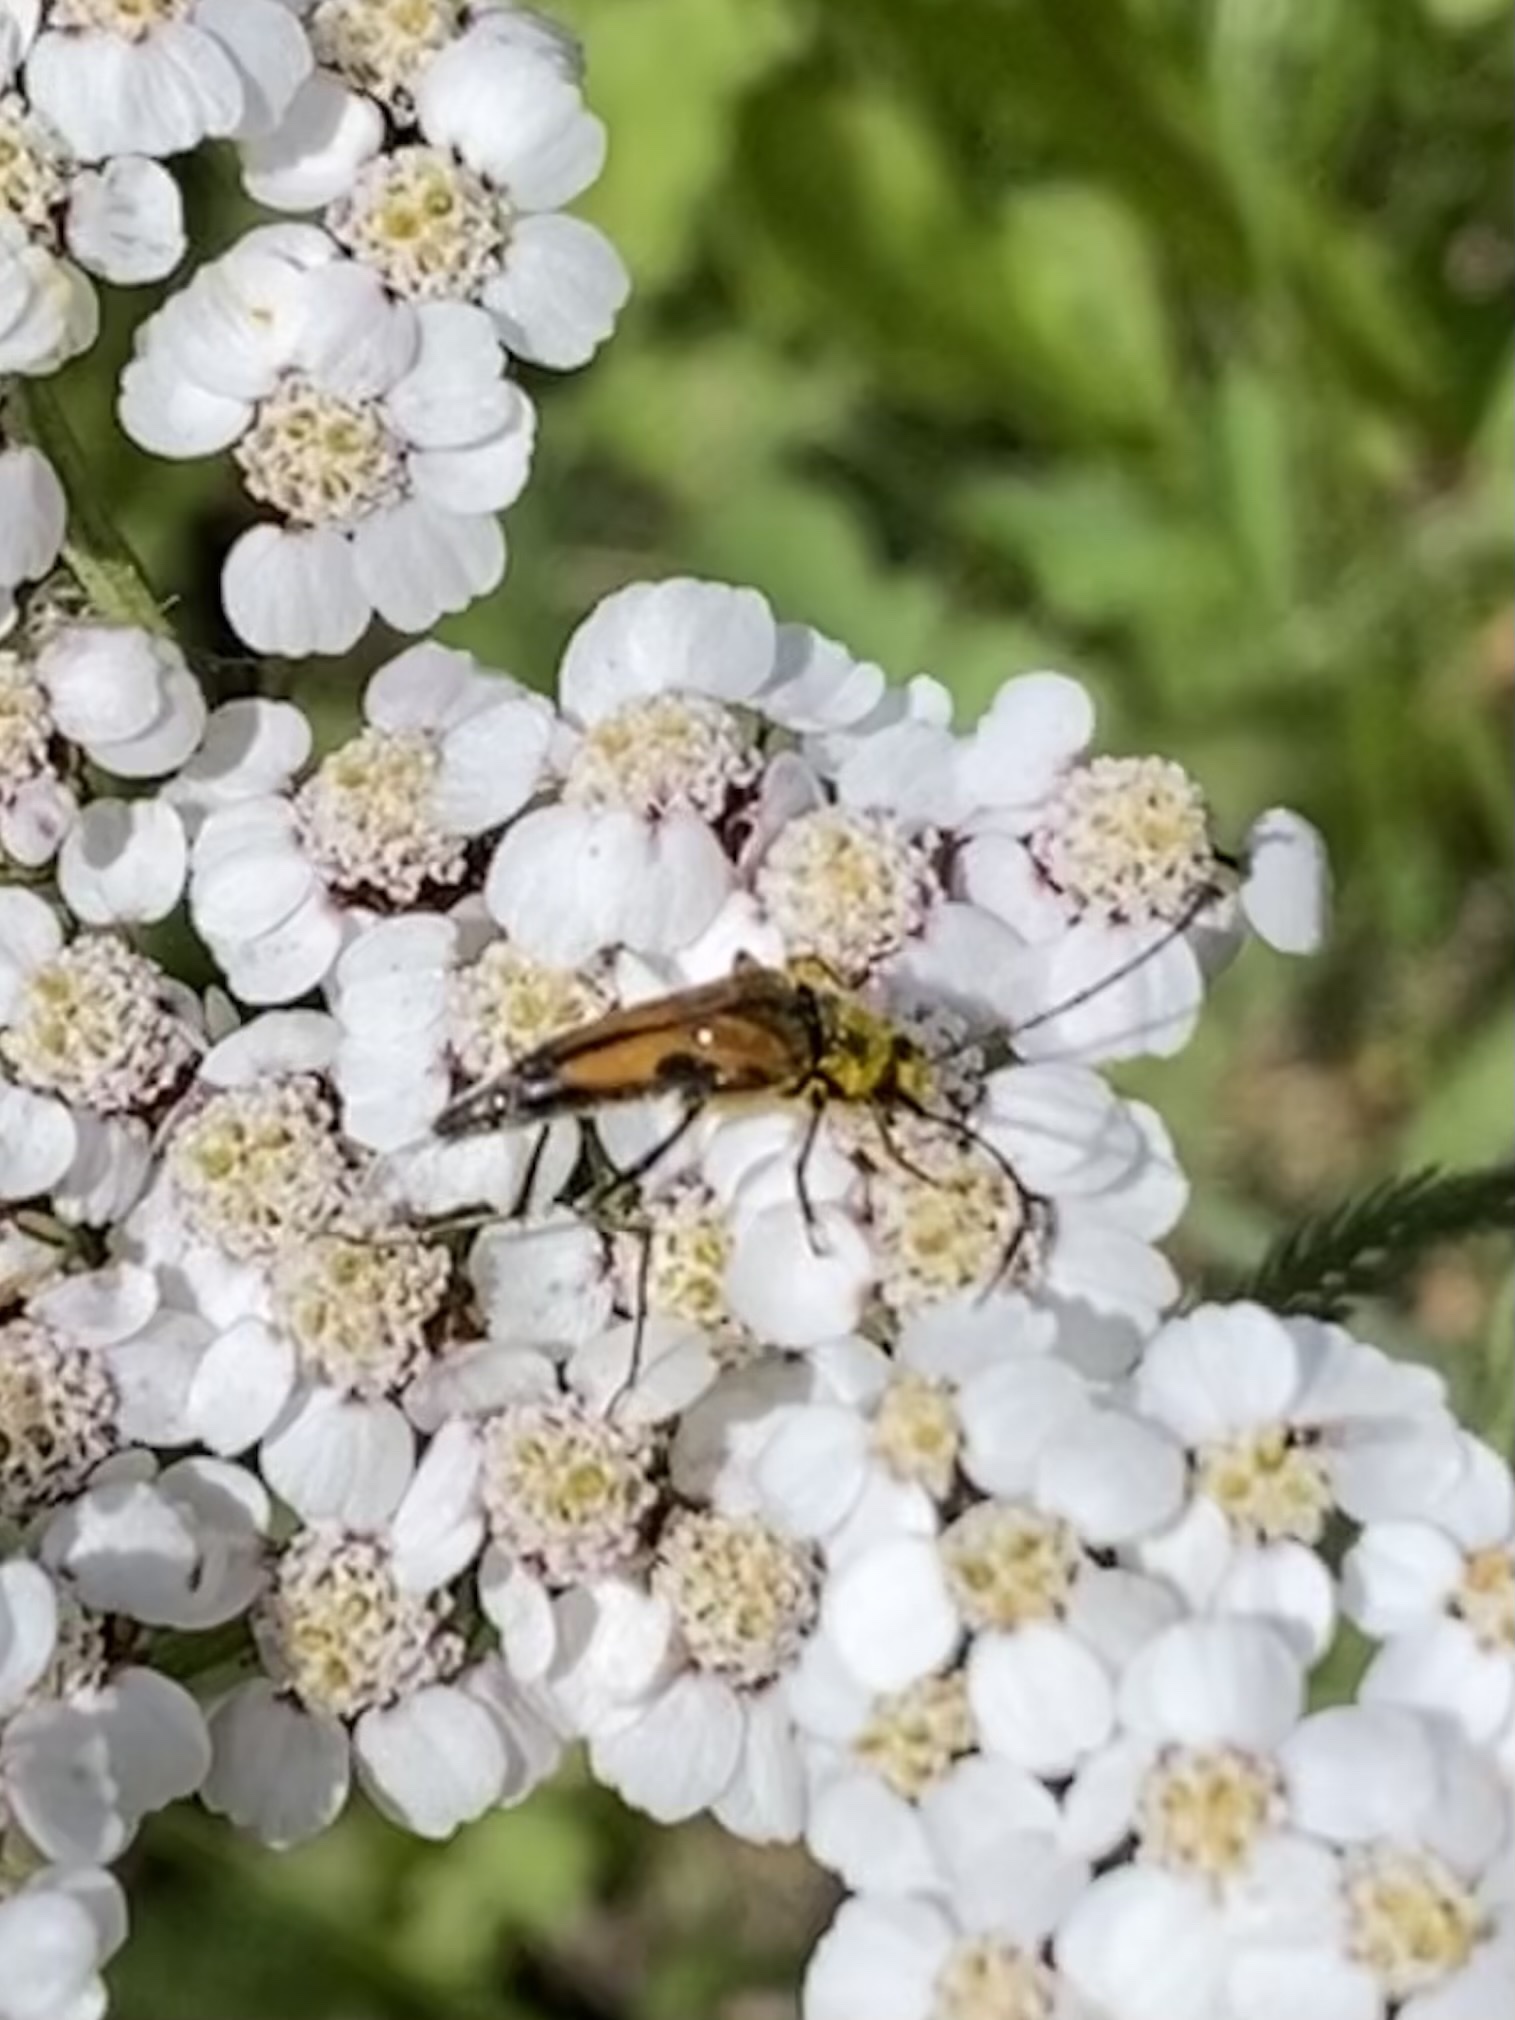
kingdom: Animalia
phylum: Arthropoda
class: Insecta
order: Coleoptera
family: Cerambycidae
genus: Etorofus
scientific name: Etorofus
